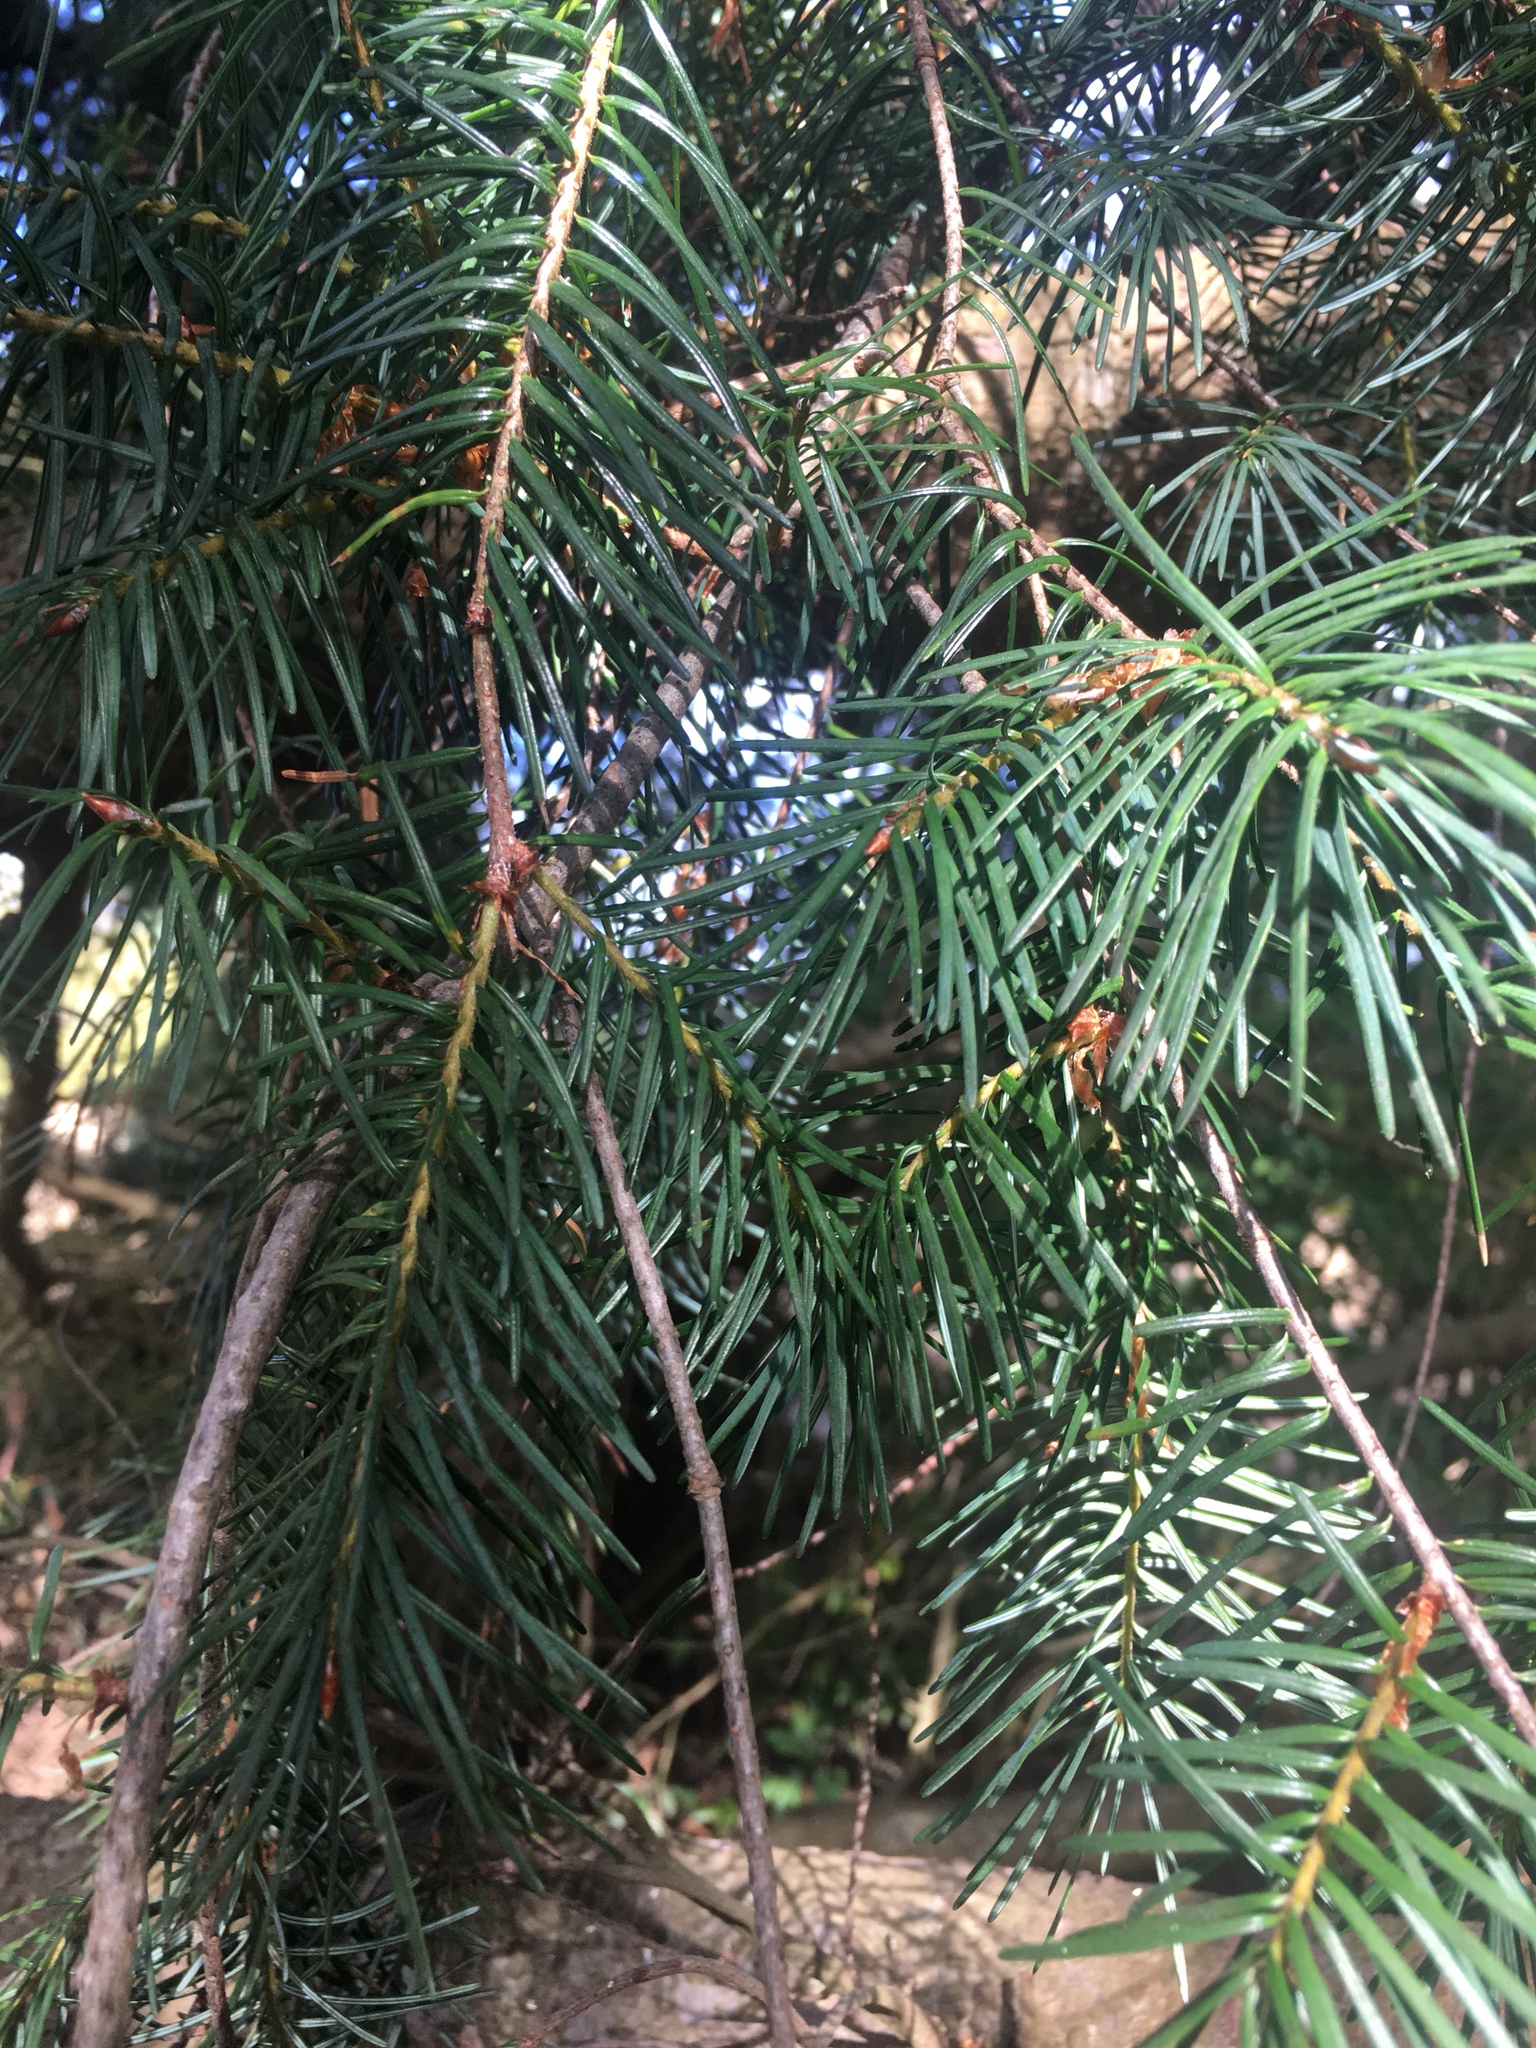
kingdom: Plantae
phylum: Tracheophyta
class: Pinopsida
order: Pinales
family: Pinaceae
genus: Pseudotsuga
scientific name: Pseudotsuga menziesii
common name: Douglas fir
